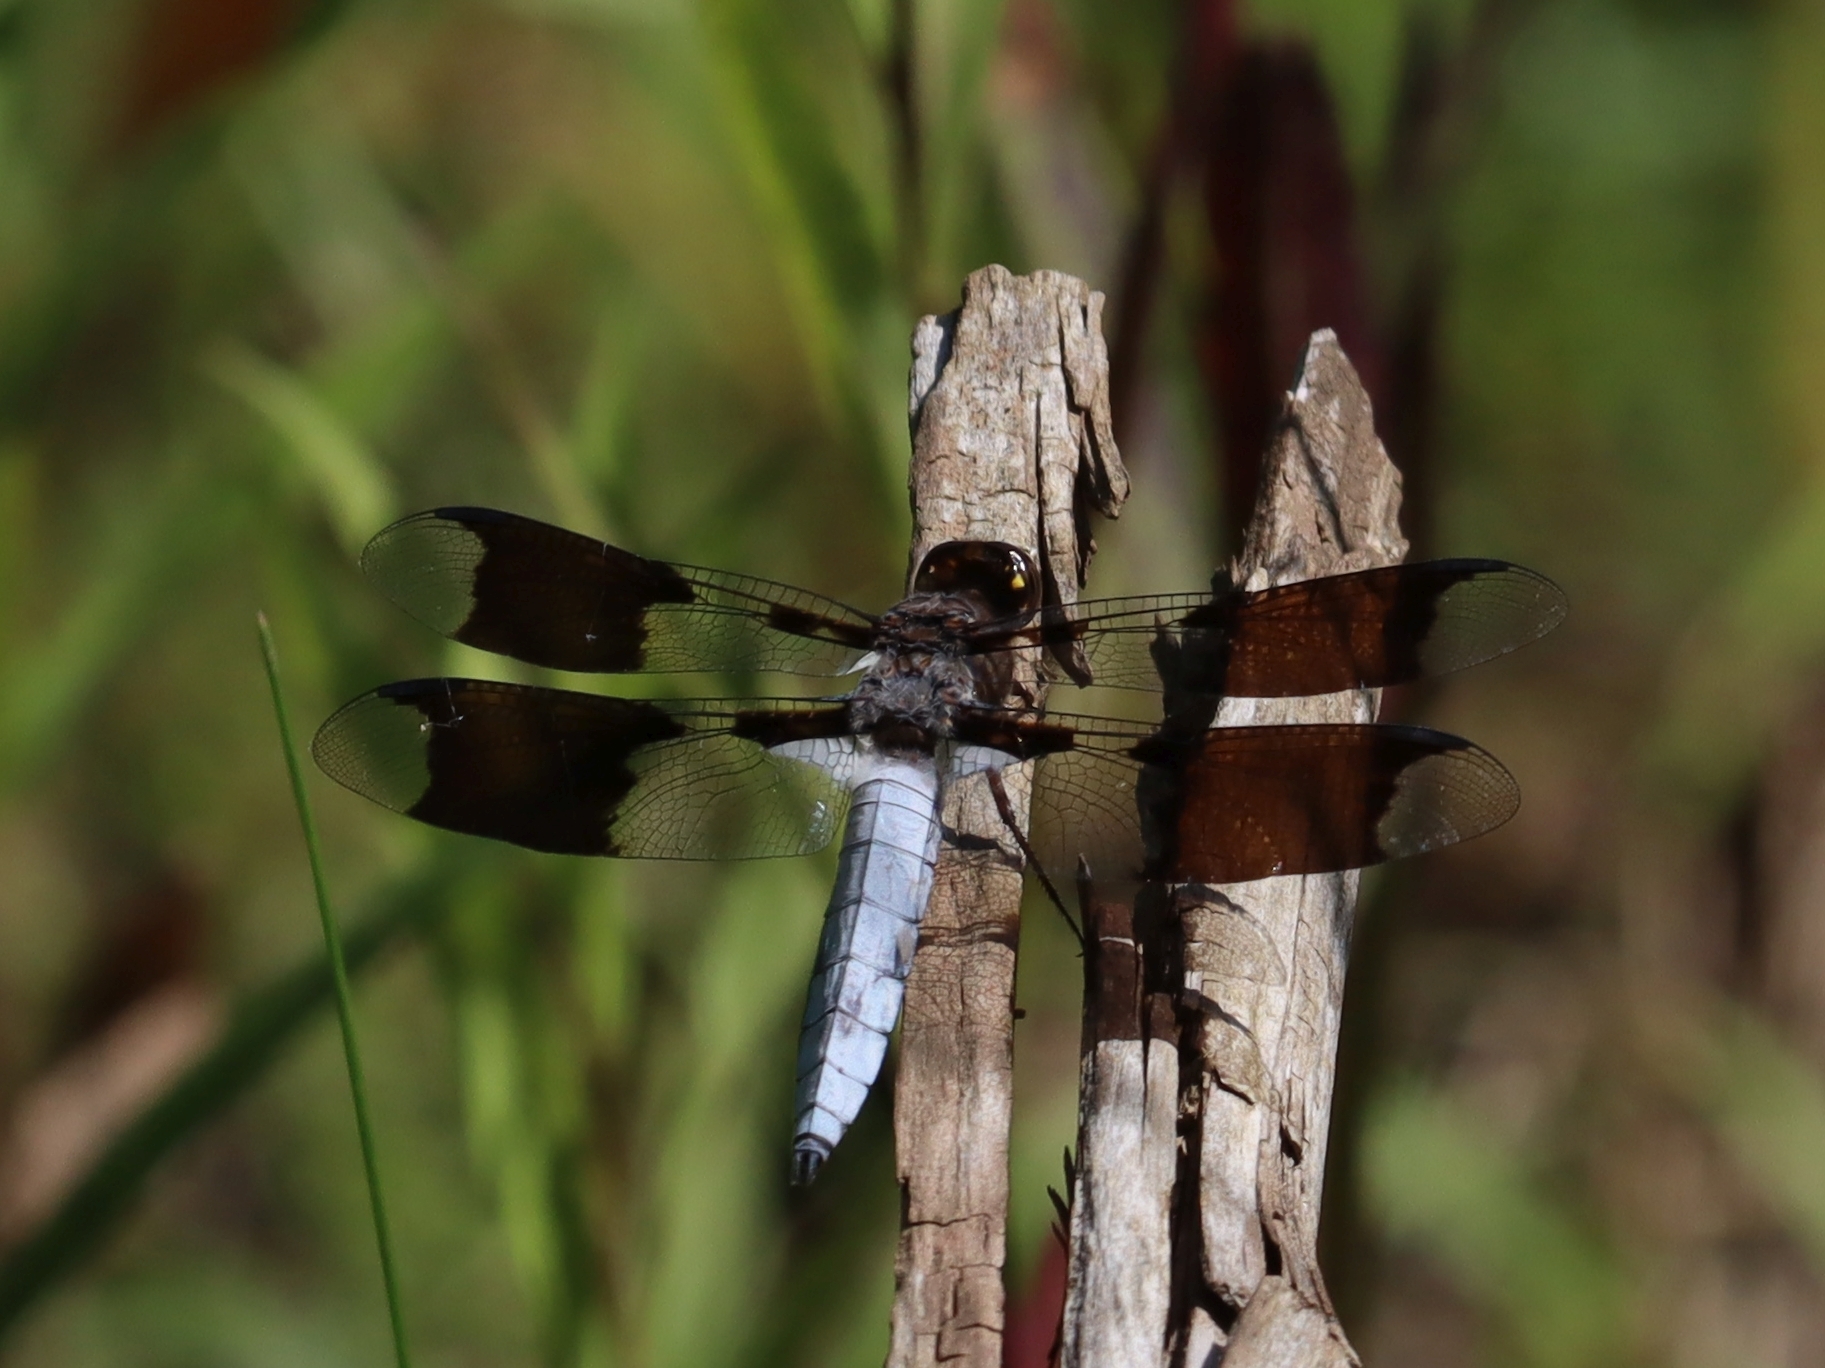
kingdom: Animalia
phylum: Arthropoda
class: Insecta
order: Odonata
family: Libellulidae
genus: Plathemis
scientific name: Plathemis lydia
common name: Common whitetail
